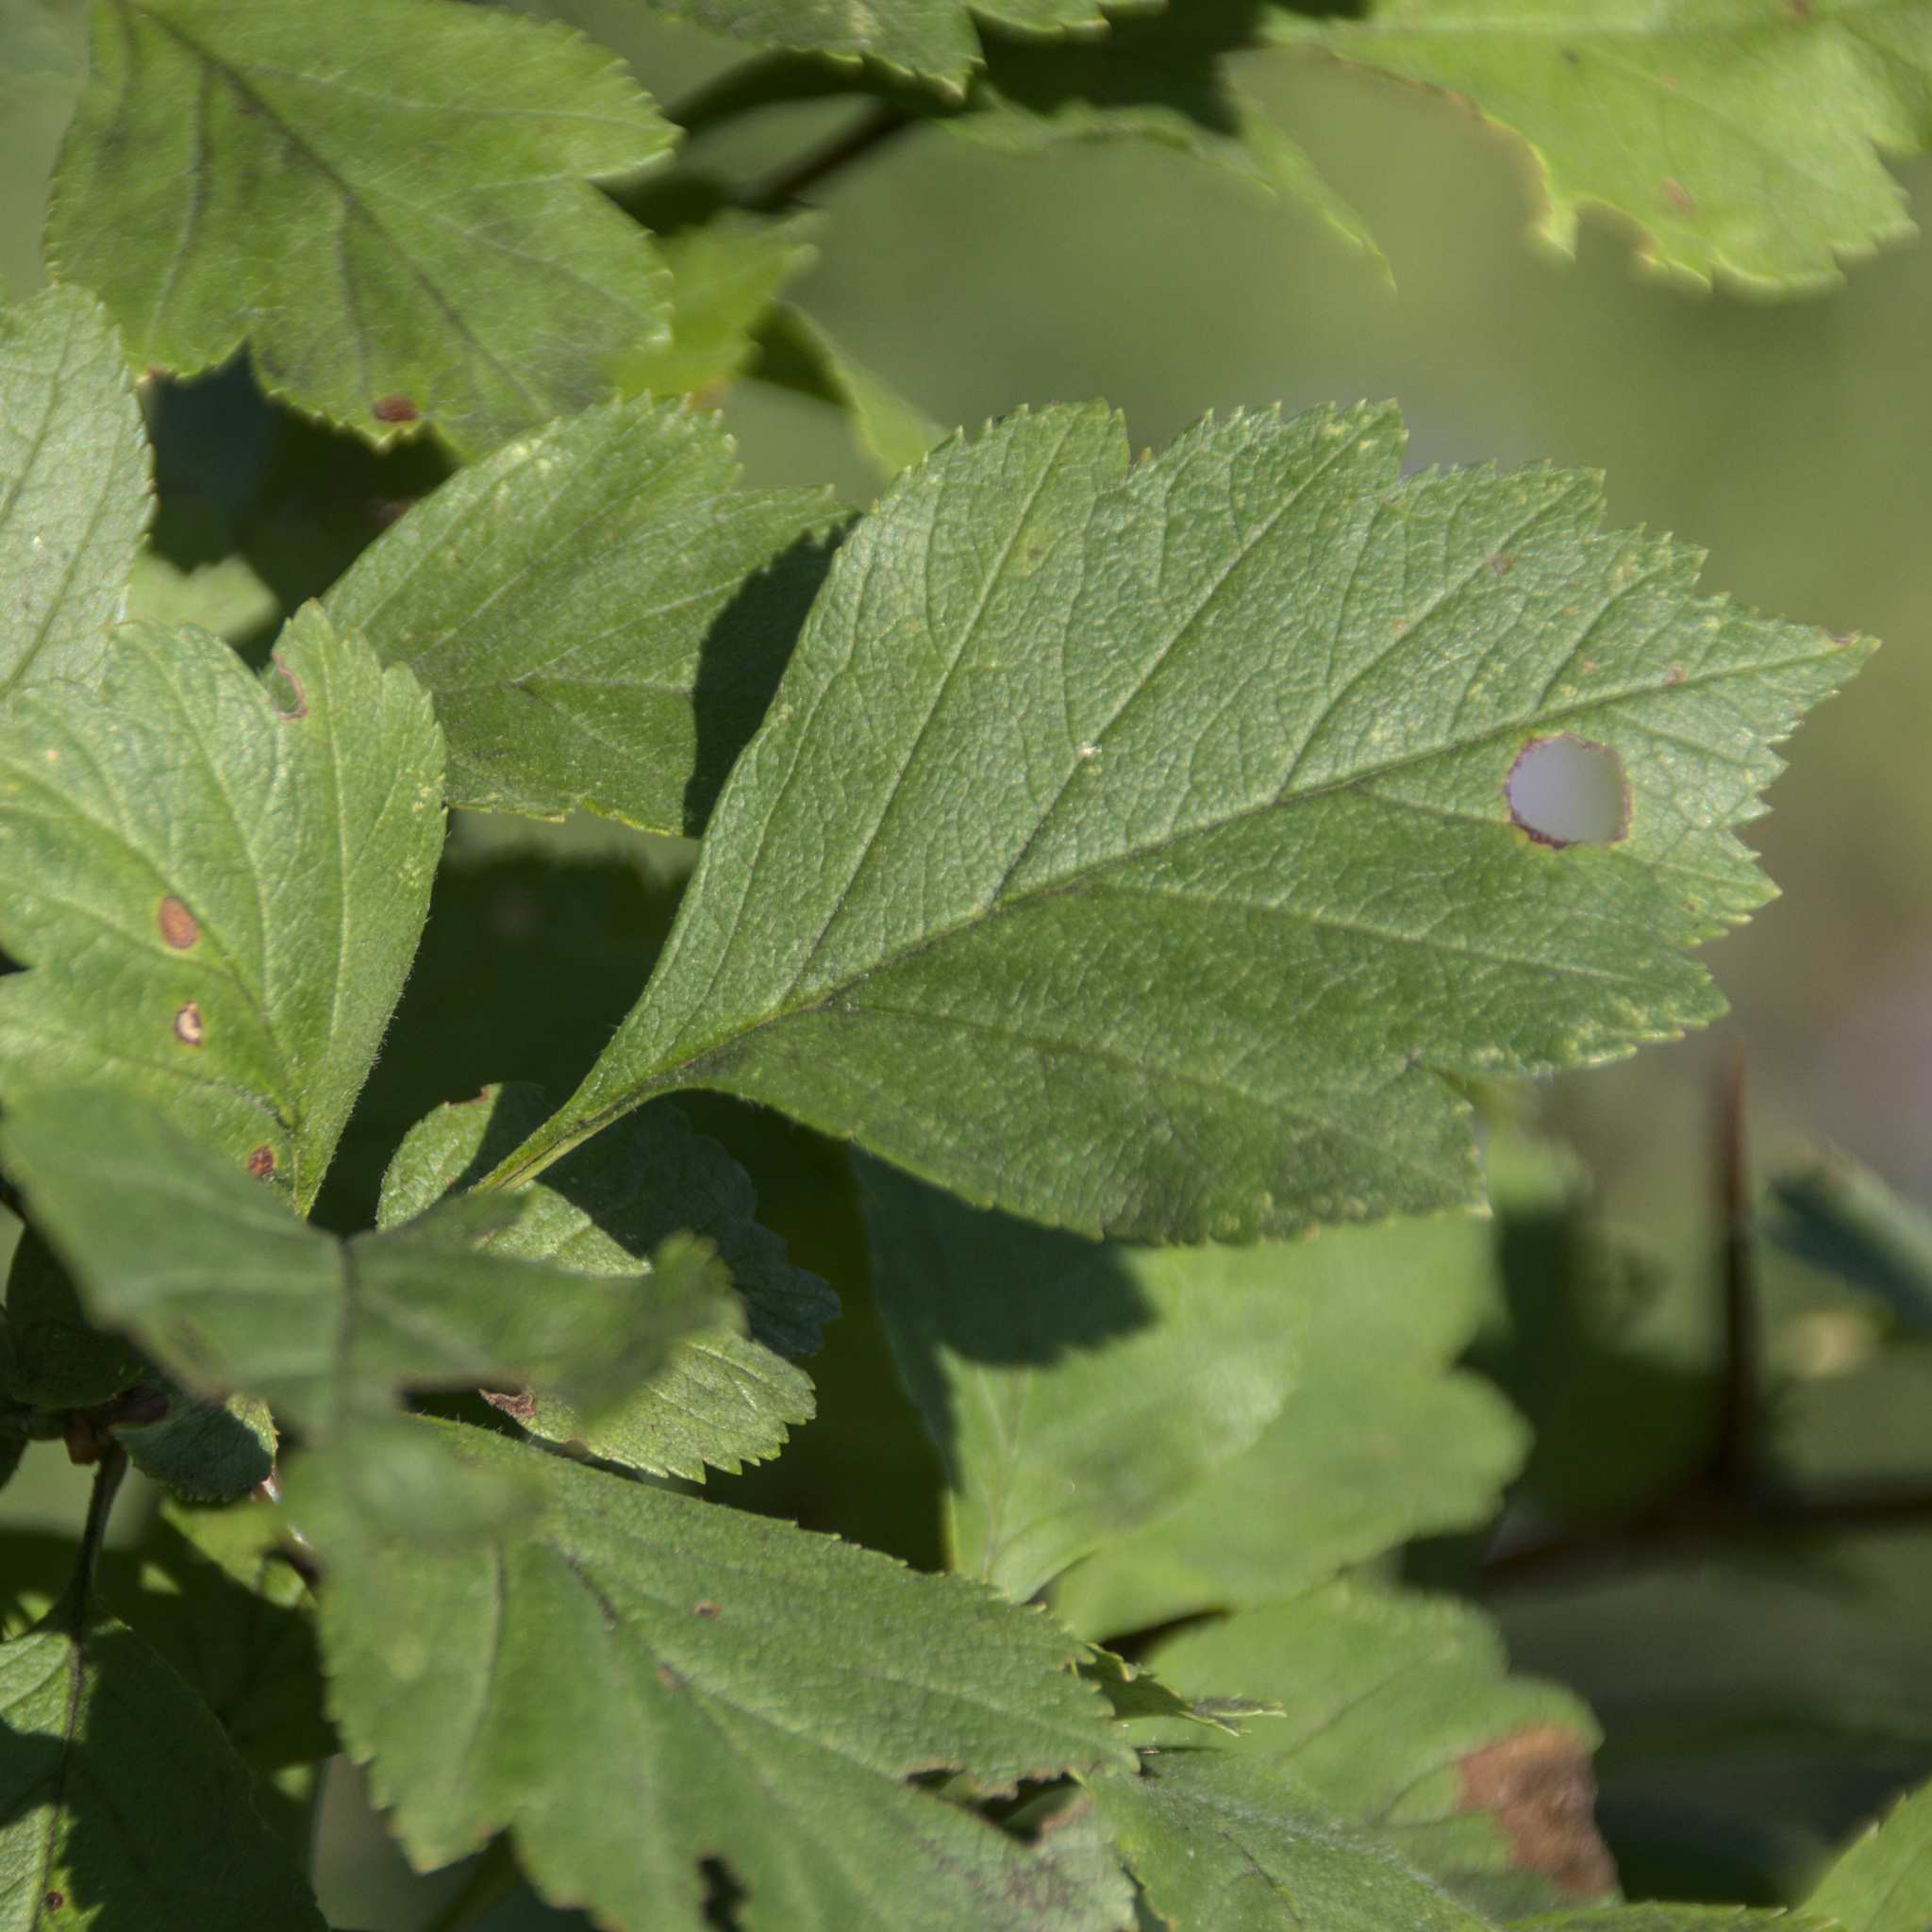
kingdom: Plantae
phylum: Tracheophyta
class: Magnoliopsida
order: Rosales
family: Rosaceae
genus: Crataegus
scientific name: Crataegus sanguinea
